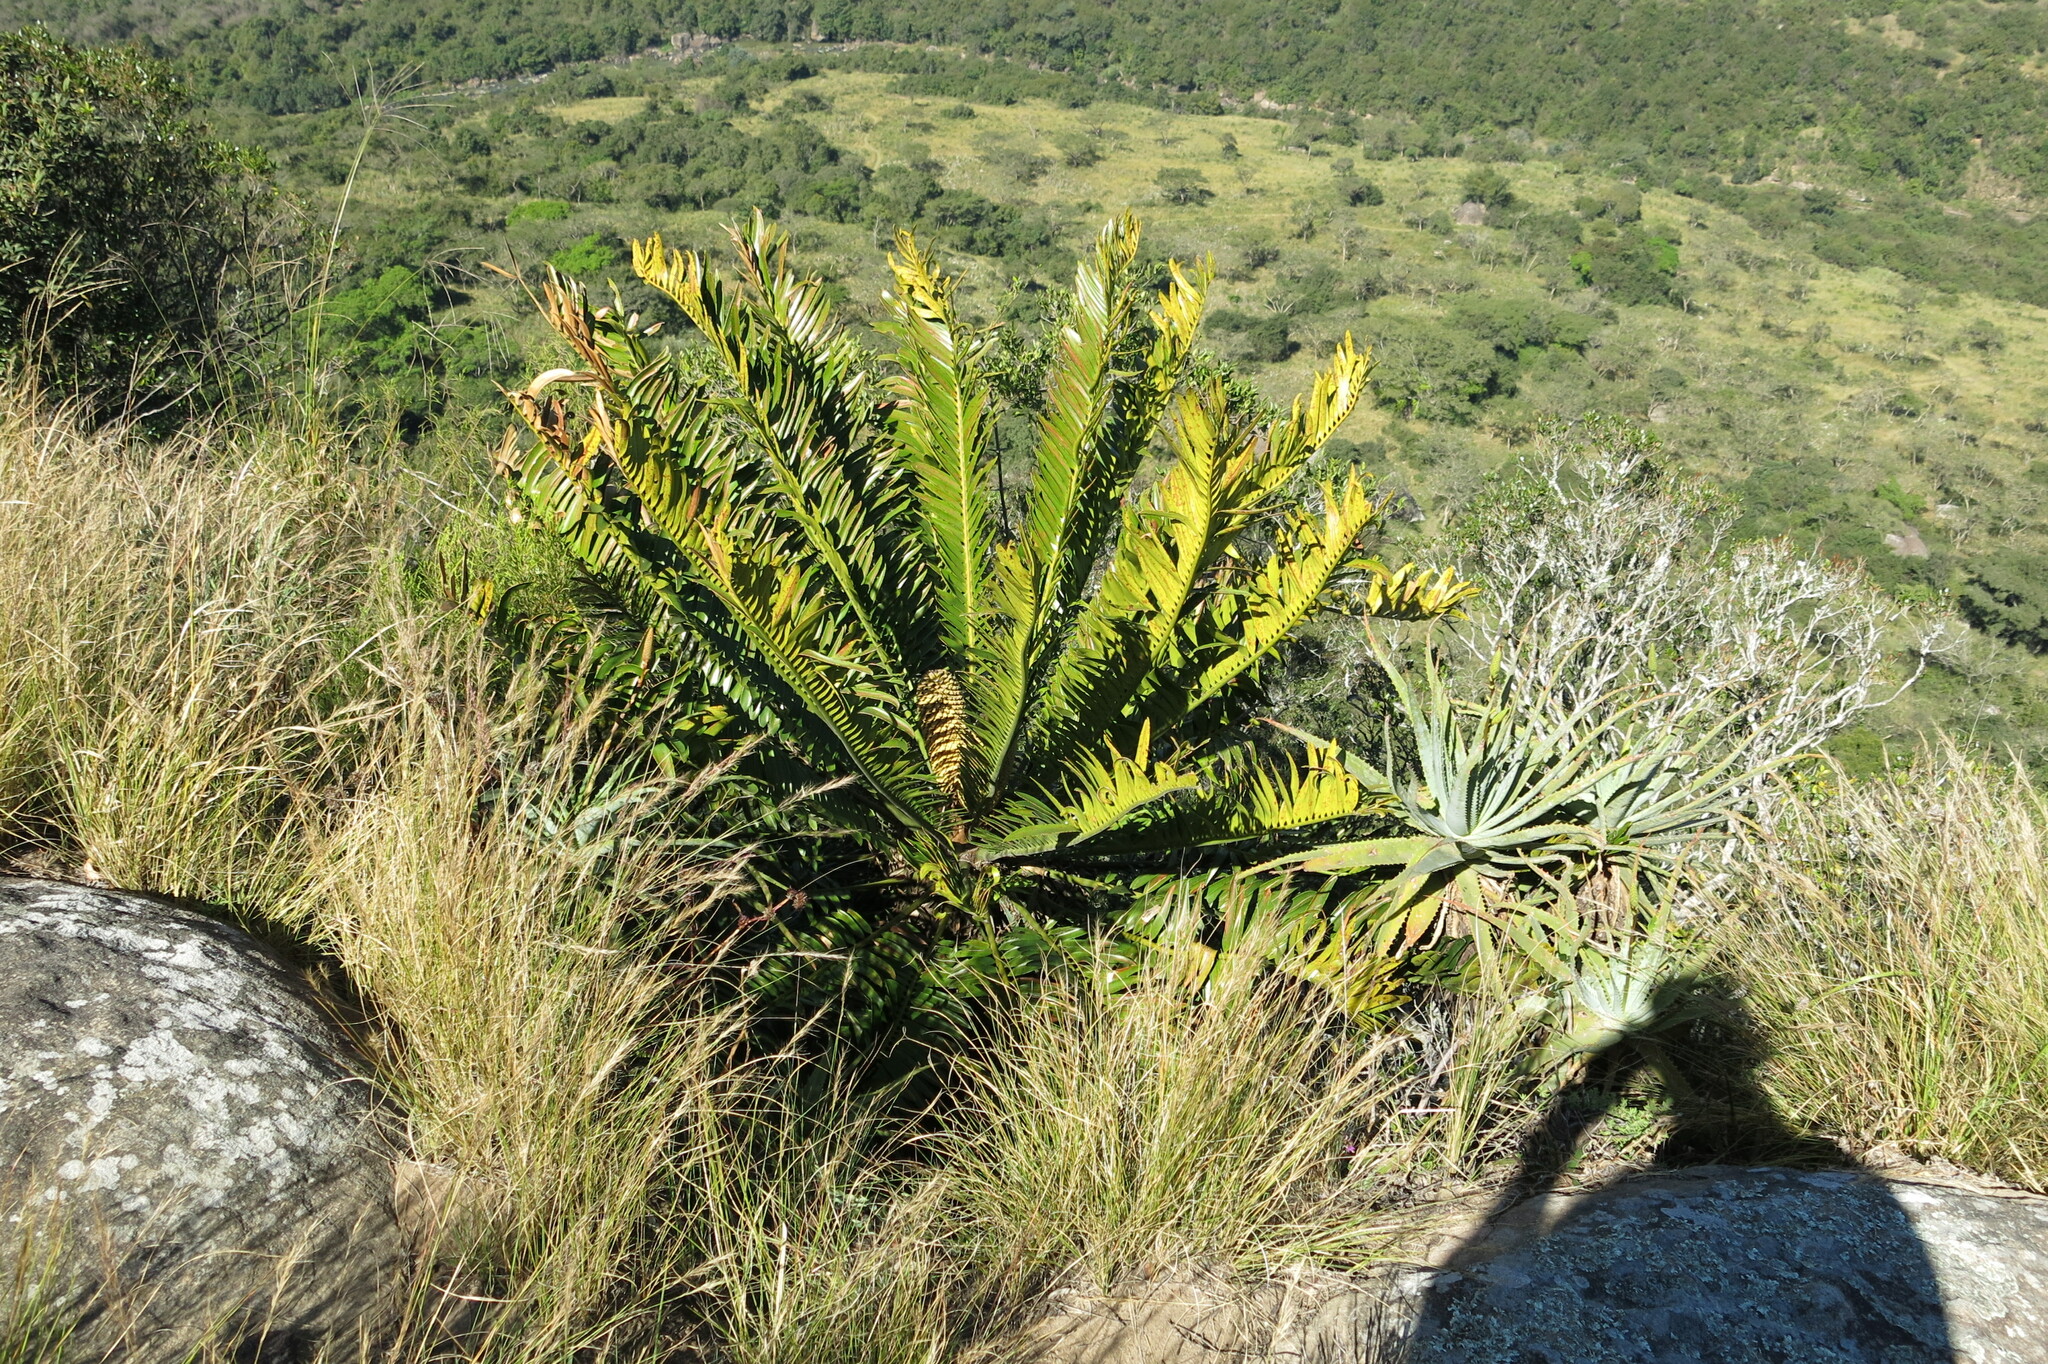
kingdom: Plantae
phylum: Tracheophyta
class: Cycadopsida
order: Cycadales
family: Zamiaceae
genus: Encephalartos
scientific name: Encephalartos natalensis
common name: Natal cycad
